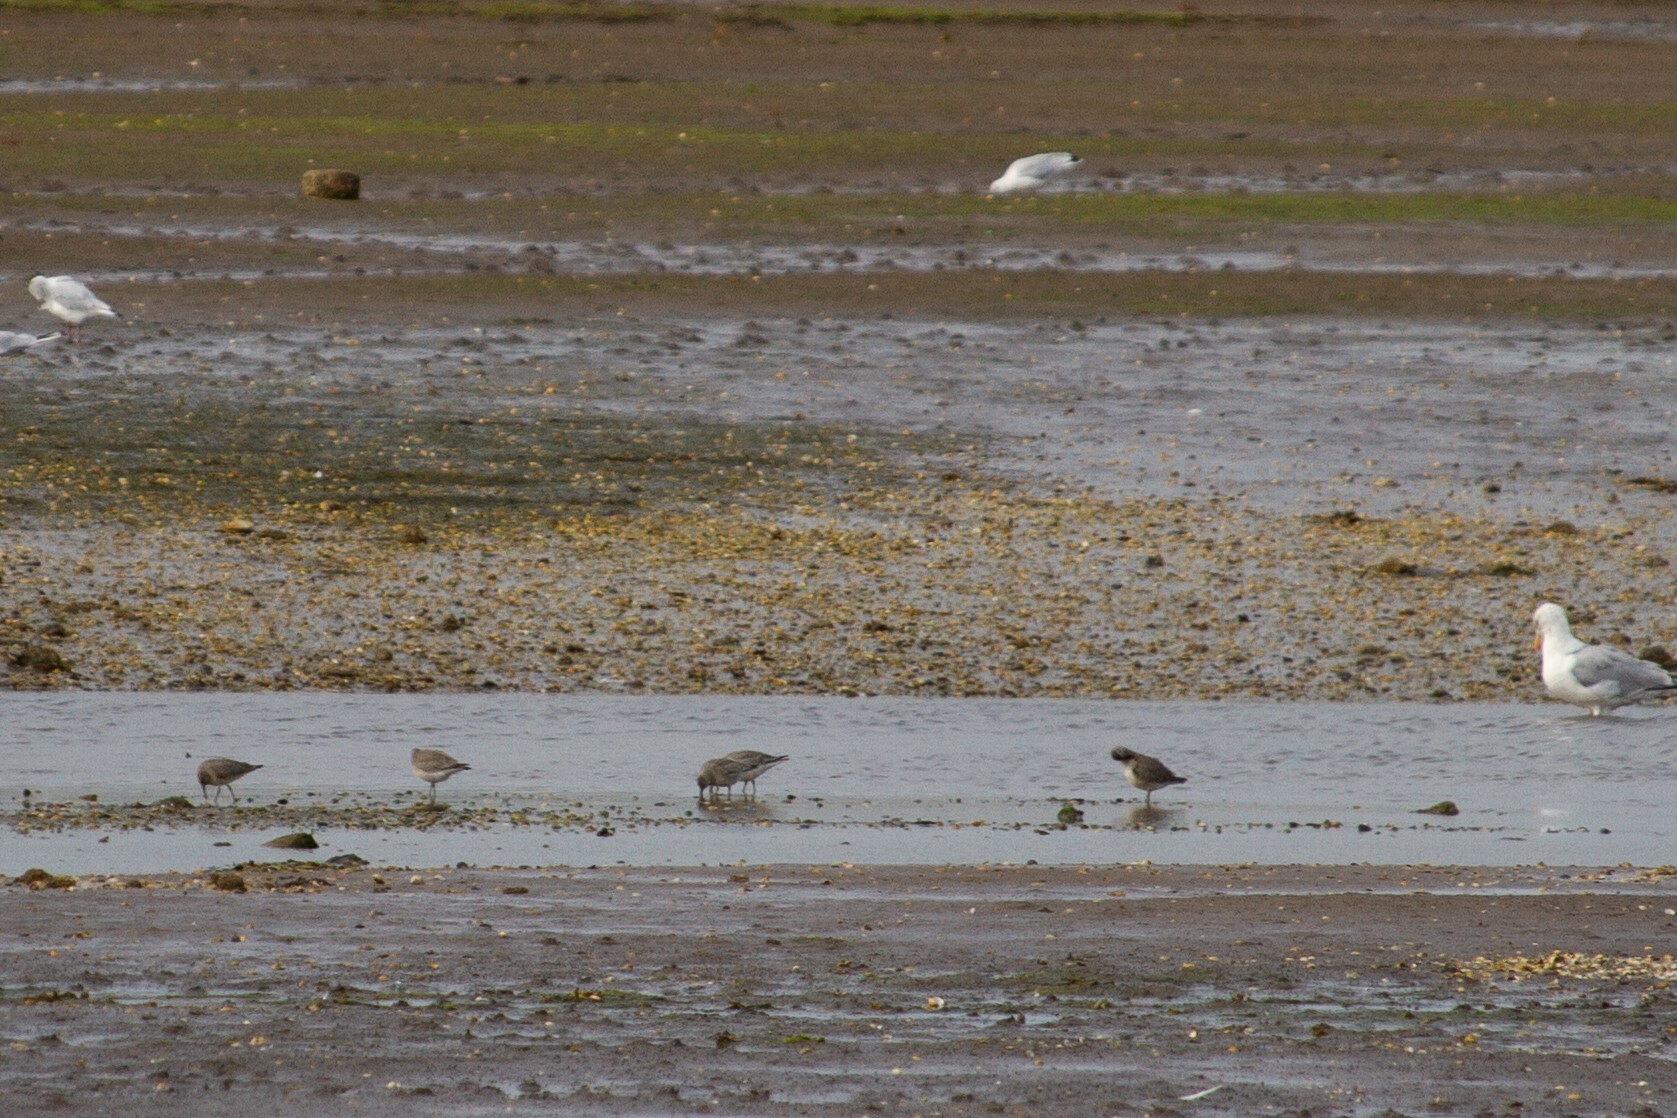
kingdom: Animalia
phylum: Chordata
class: Aves
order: Charadriiformes
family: Scolopacidae
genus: Calidris
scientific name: Calidris canutus
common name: Red knot
